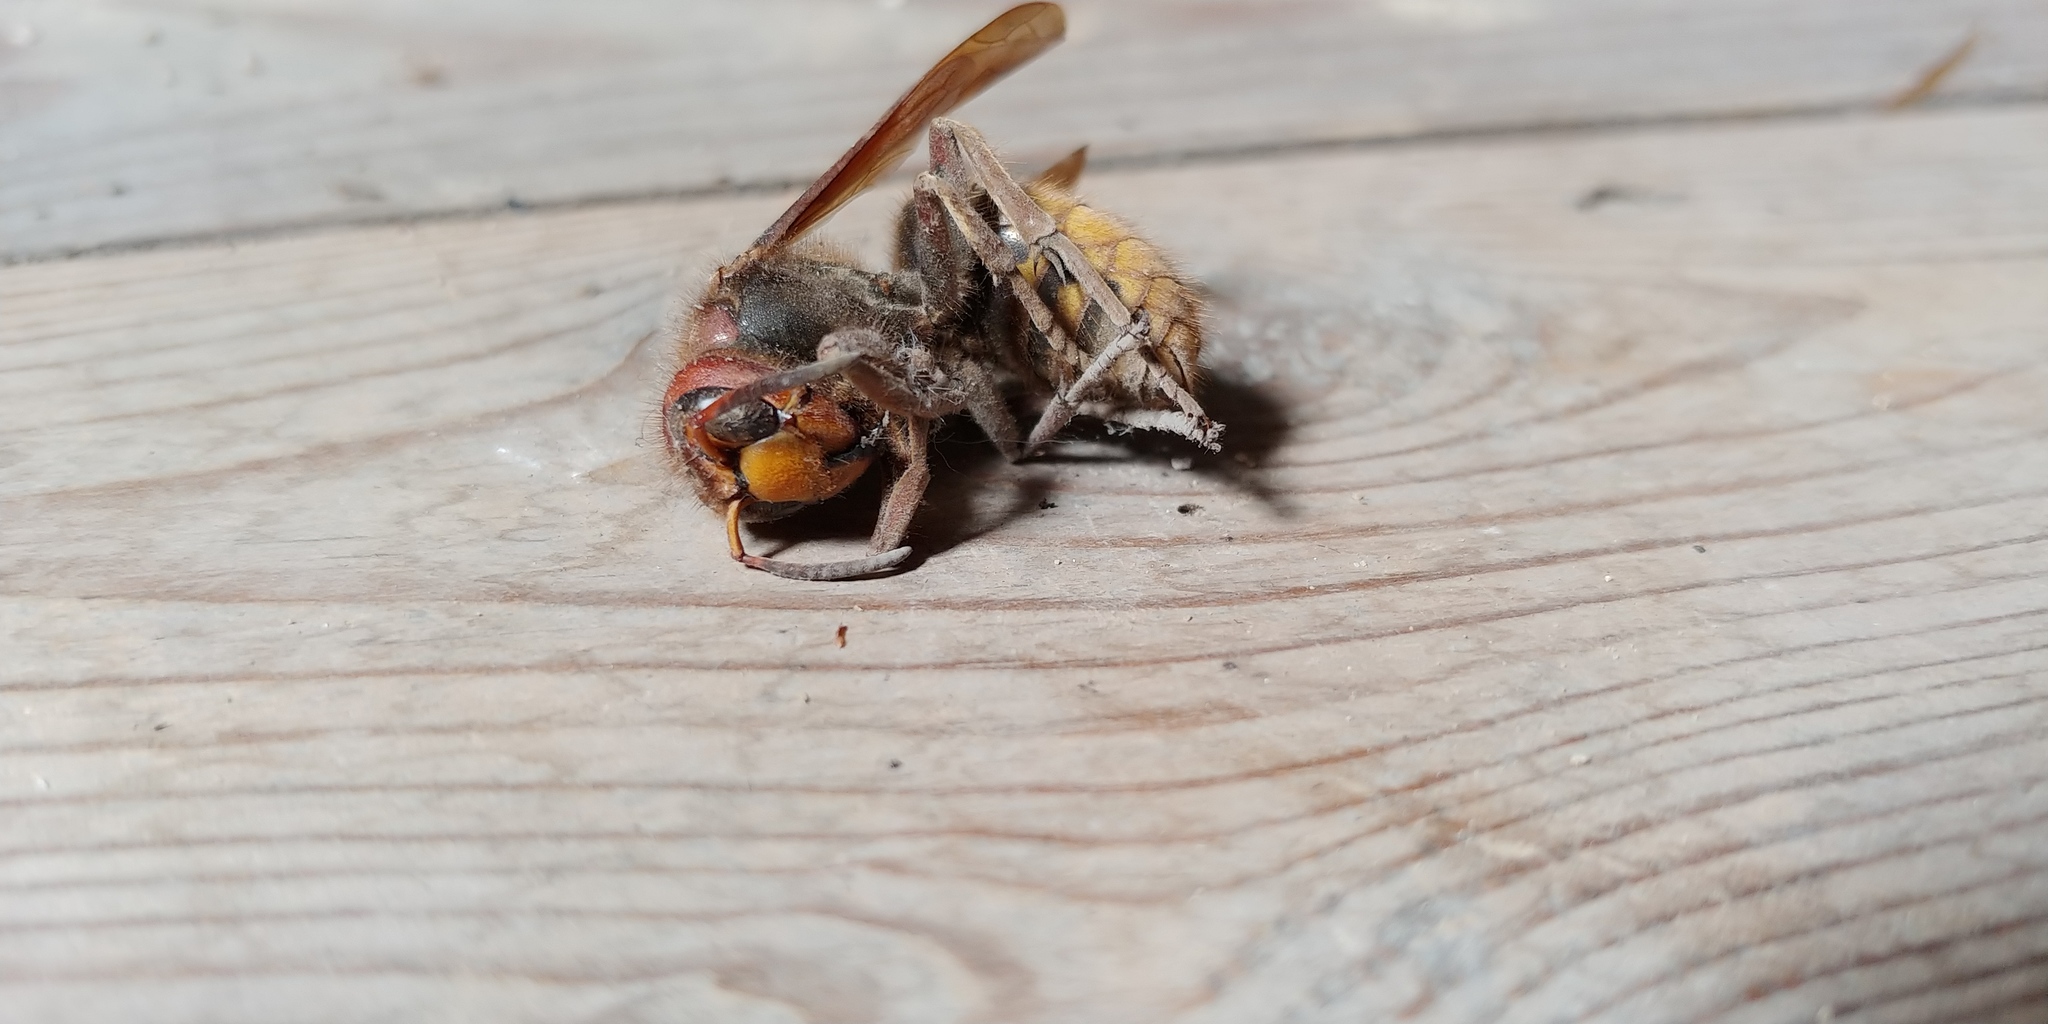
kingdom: Animalia
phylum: Arthropoda
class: Insecta
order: Hymenoptera
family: Vespidae
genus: Vespa
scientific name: Vespa crabro
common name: Hornet
